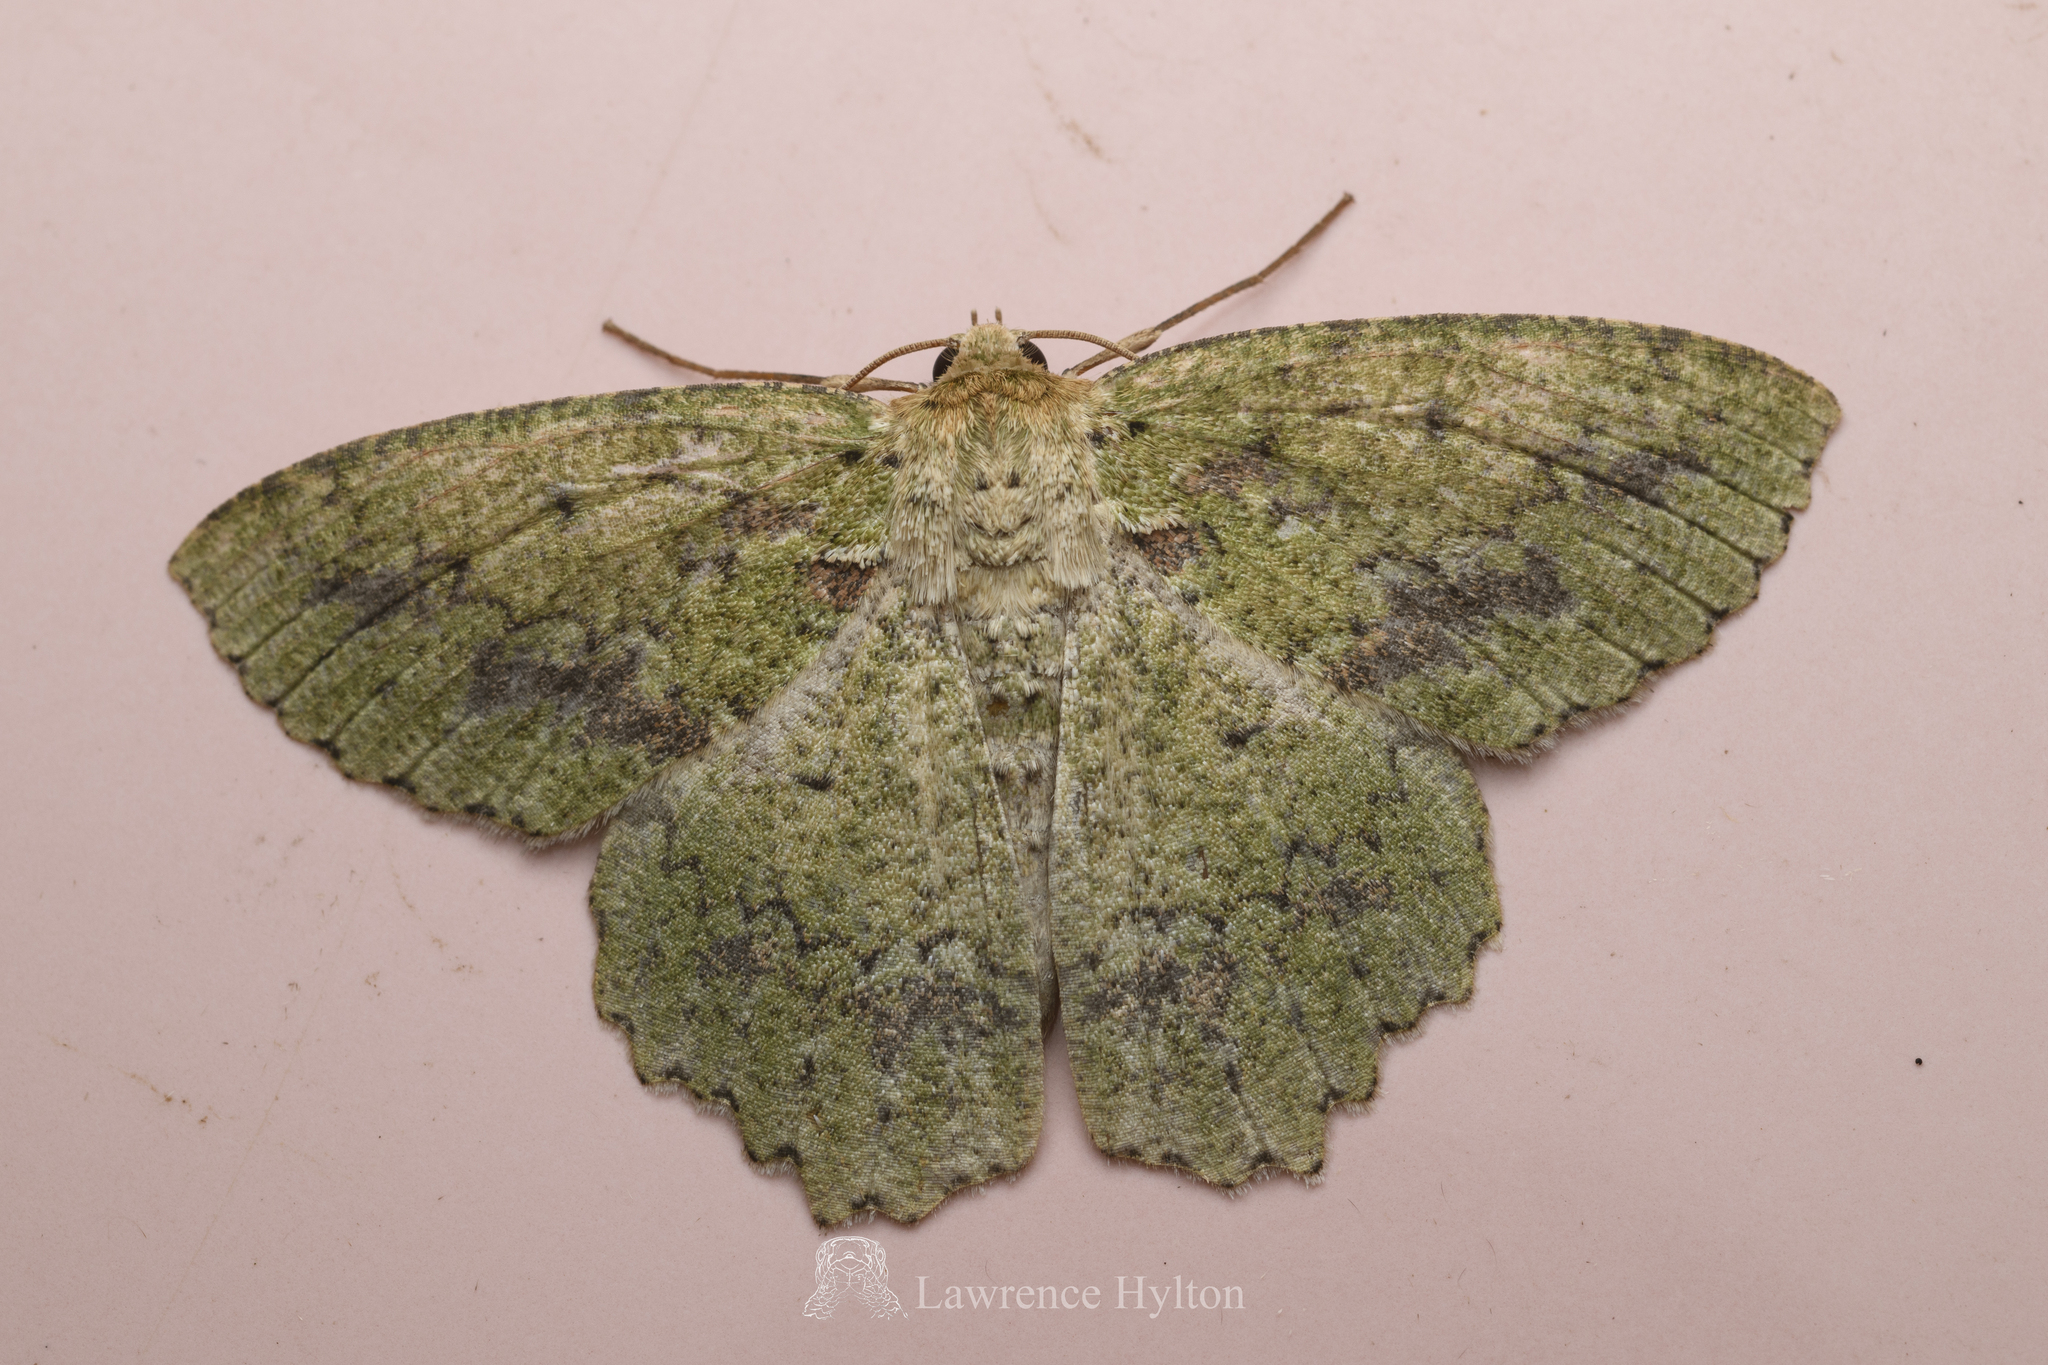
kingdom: Animalia
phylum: Arthropoda
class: Insecta
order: Lepidoptera
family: Geometridae
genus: Herochroma
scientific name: Herochroma viridaria
